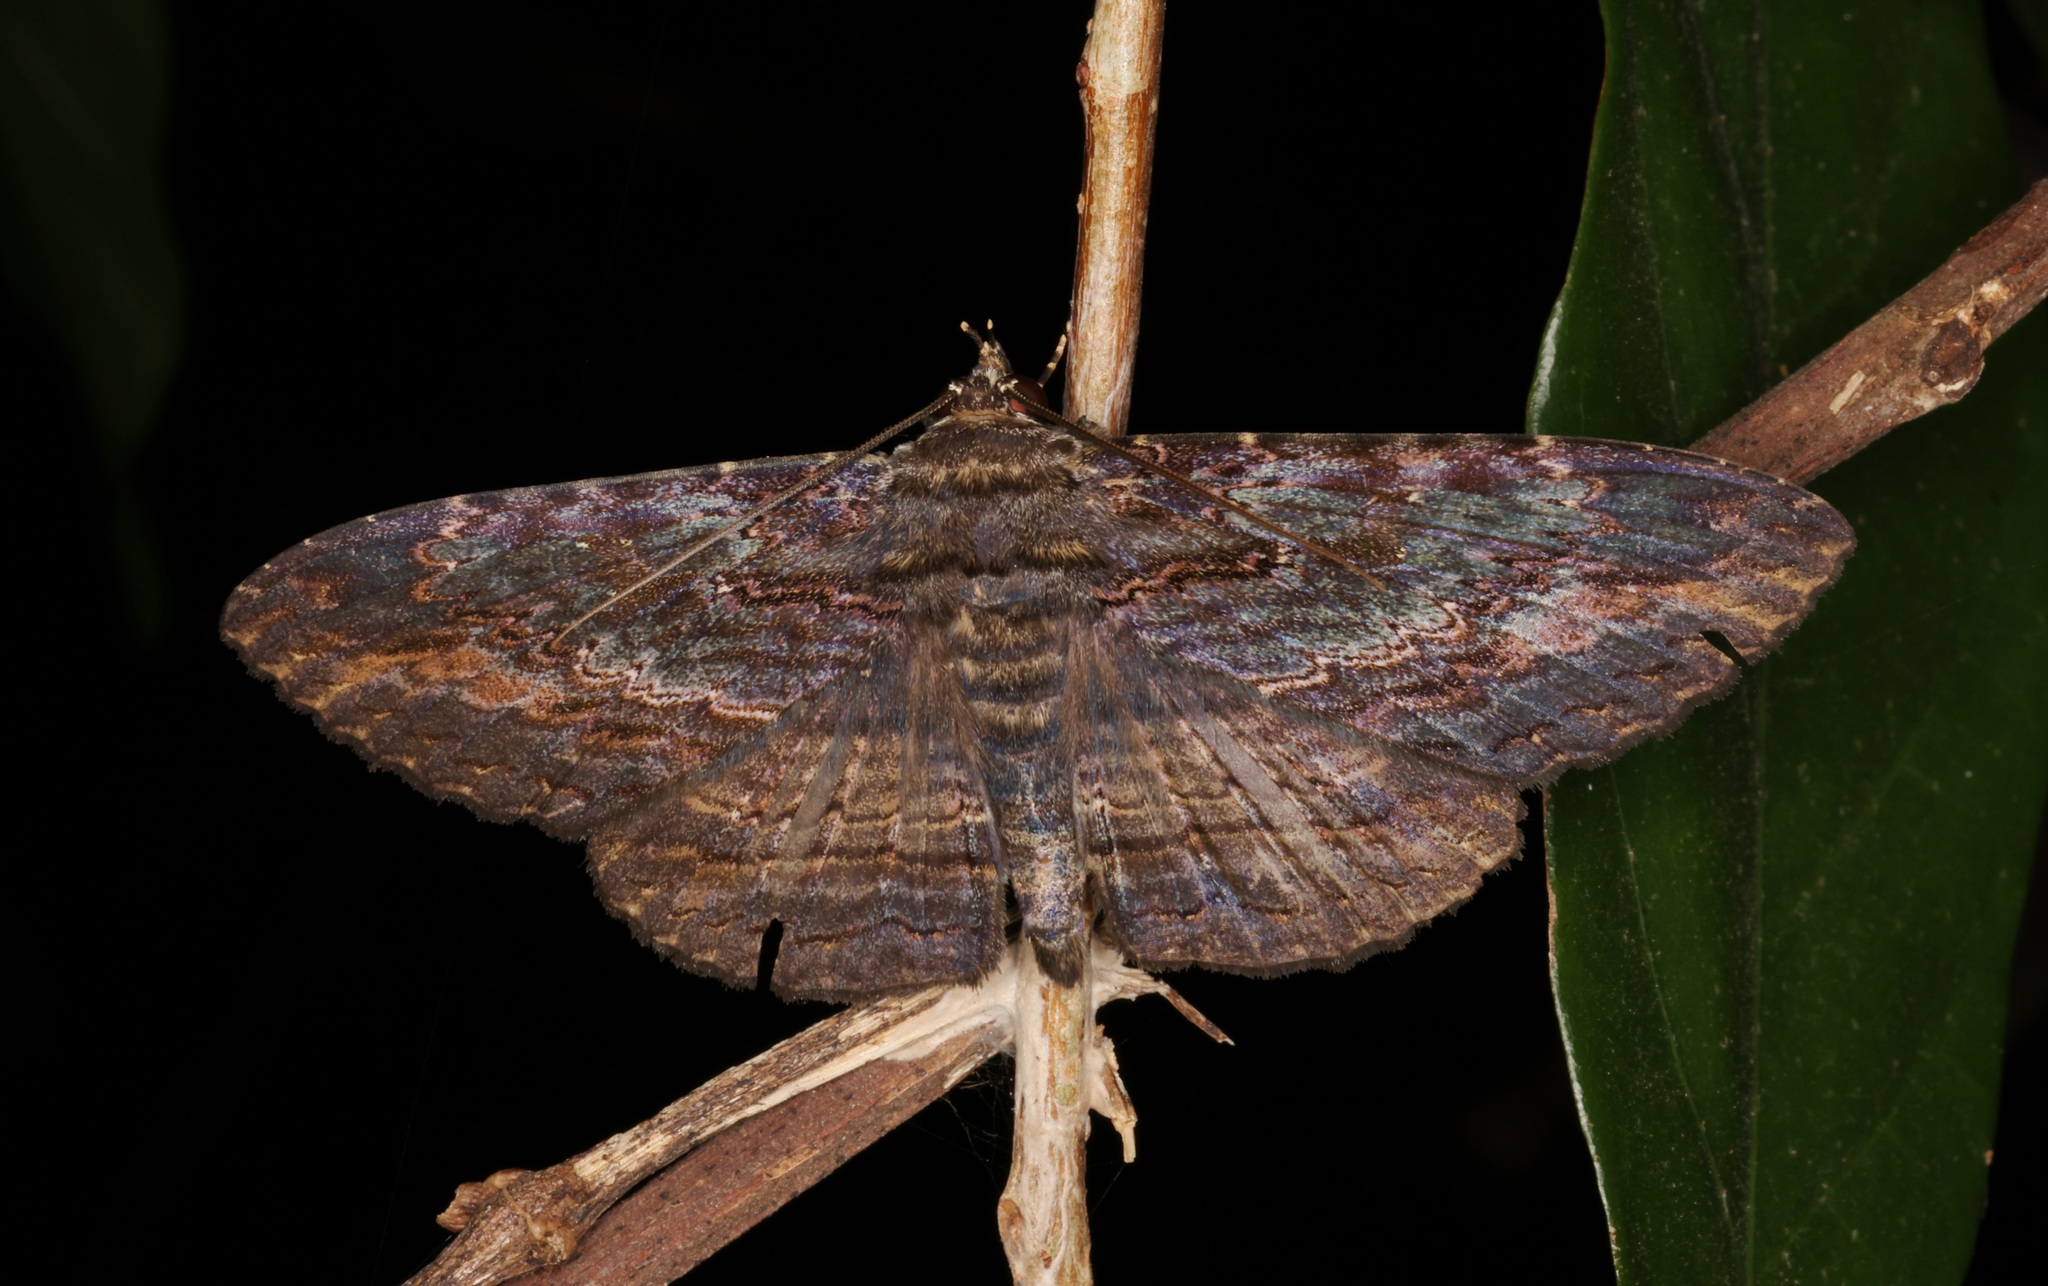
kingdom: Animalia
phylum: Arthropoda
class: Insecta
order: Lepidoptera
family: Erebidae
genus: Anisoneura
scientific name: Anisoneura salebrosa
